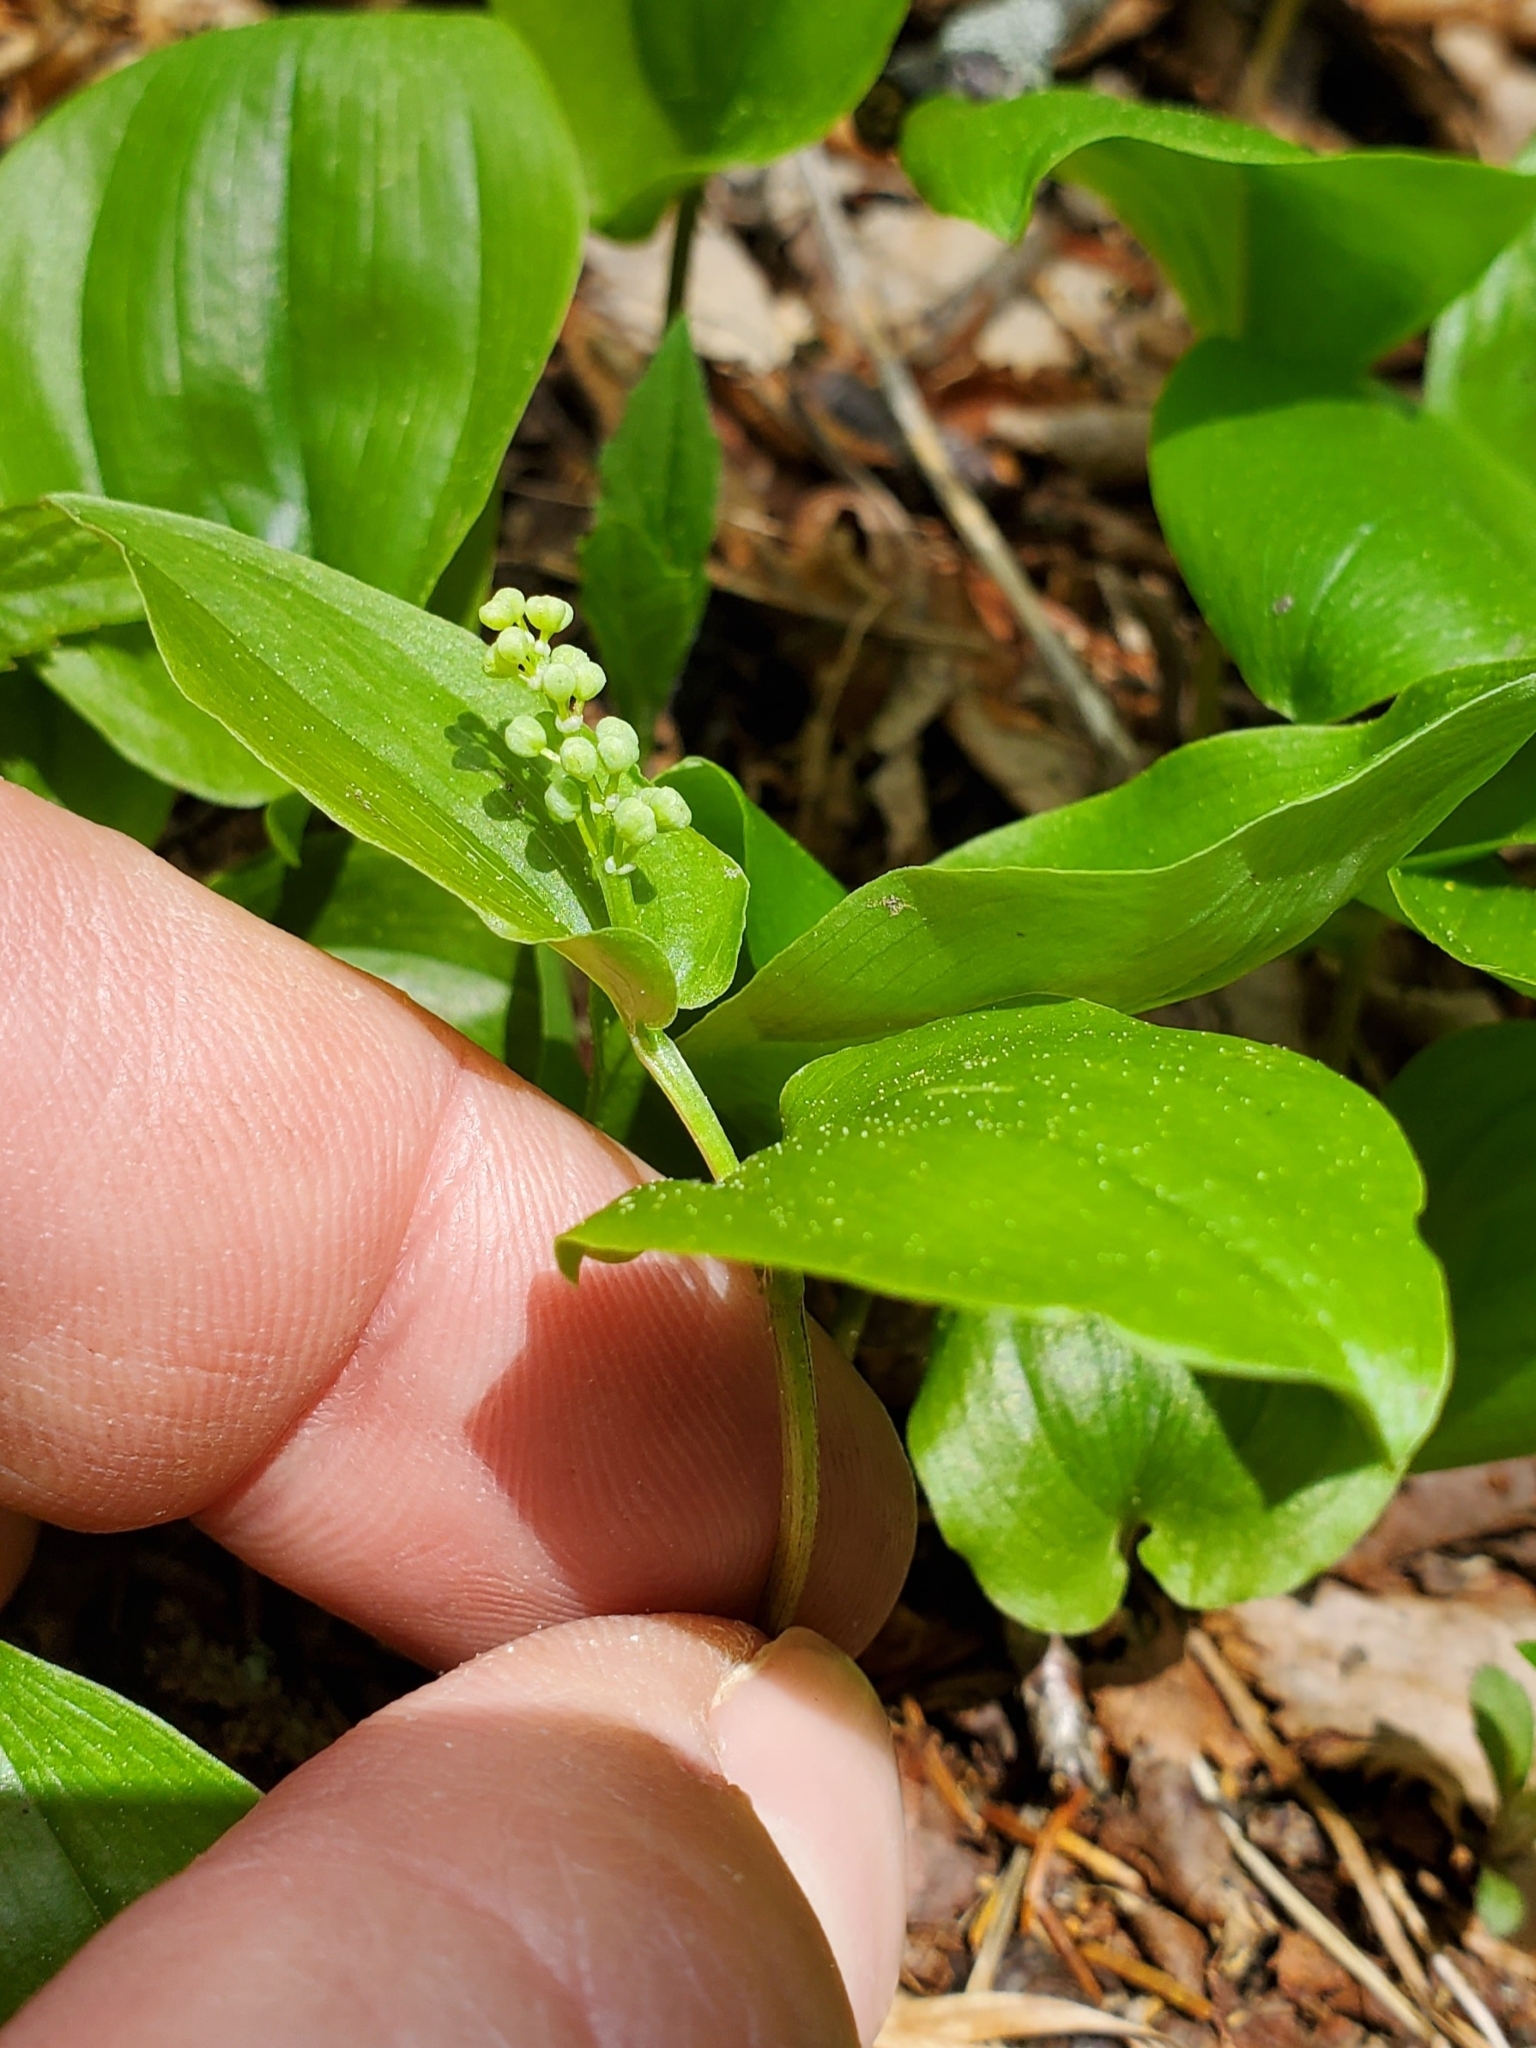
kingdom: Plantae
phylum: Tracheophyta
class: Liliopsida
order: Asparagales
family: Asparagaceae
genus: Maianthemum
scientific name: Maianthemum canadense
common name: False lily-of-the-valley
